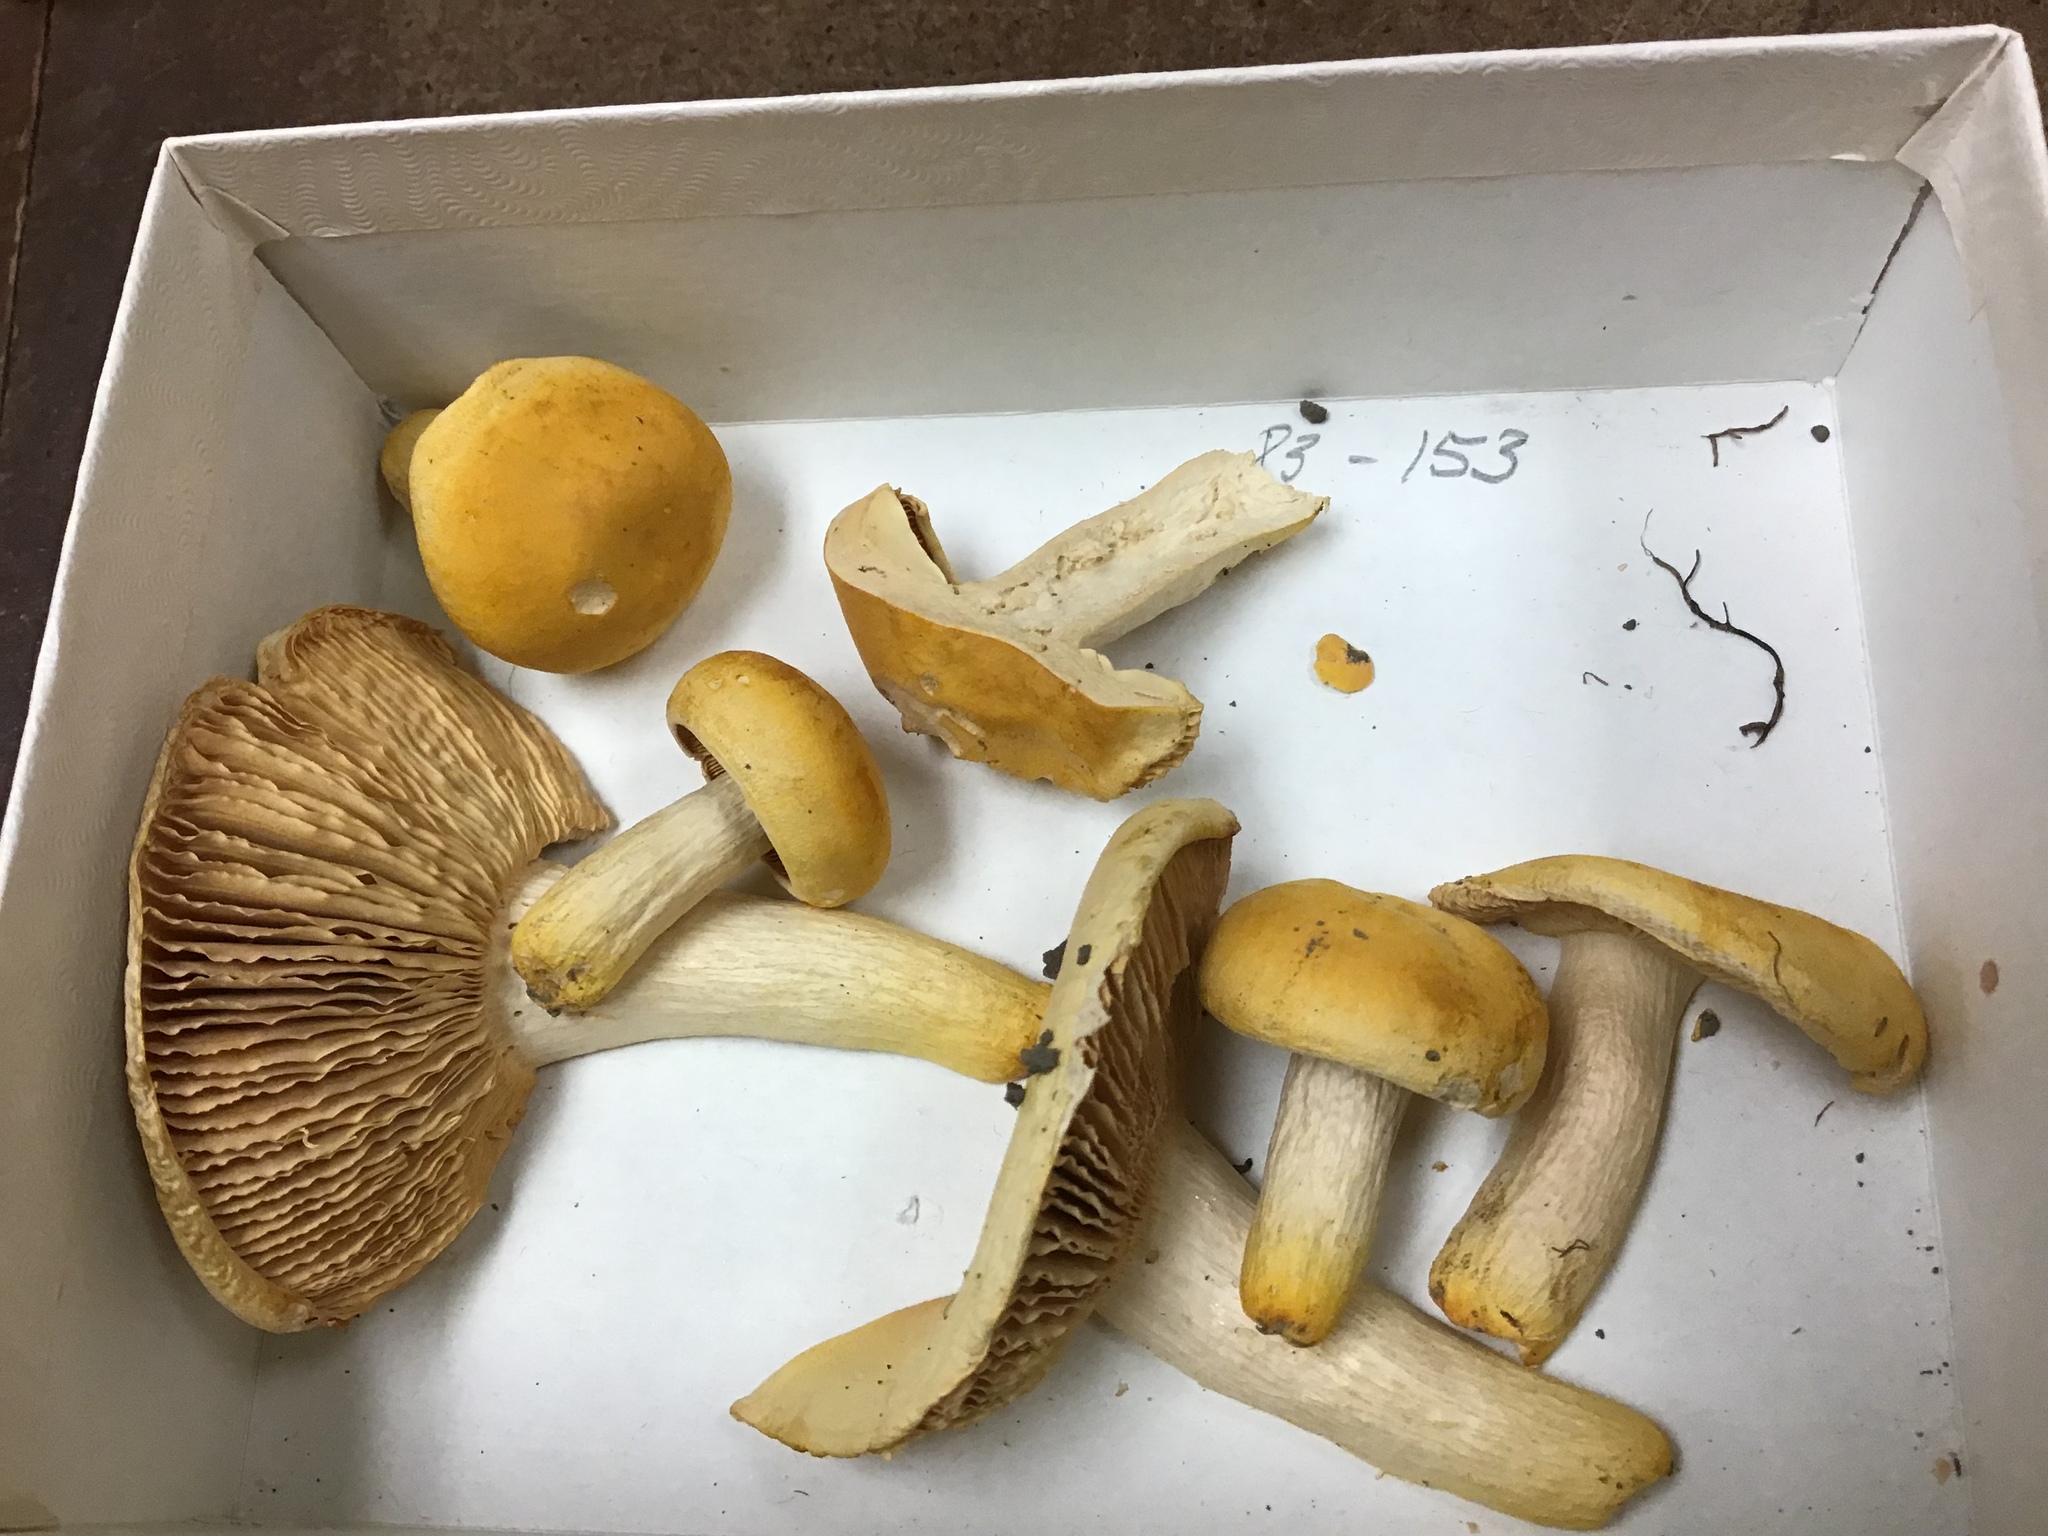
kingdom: Fungi
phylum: Basidiomycota
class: Agaricomycetes
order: Russulales
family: Russulaceae
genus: Russula
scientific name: Russula flavida
